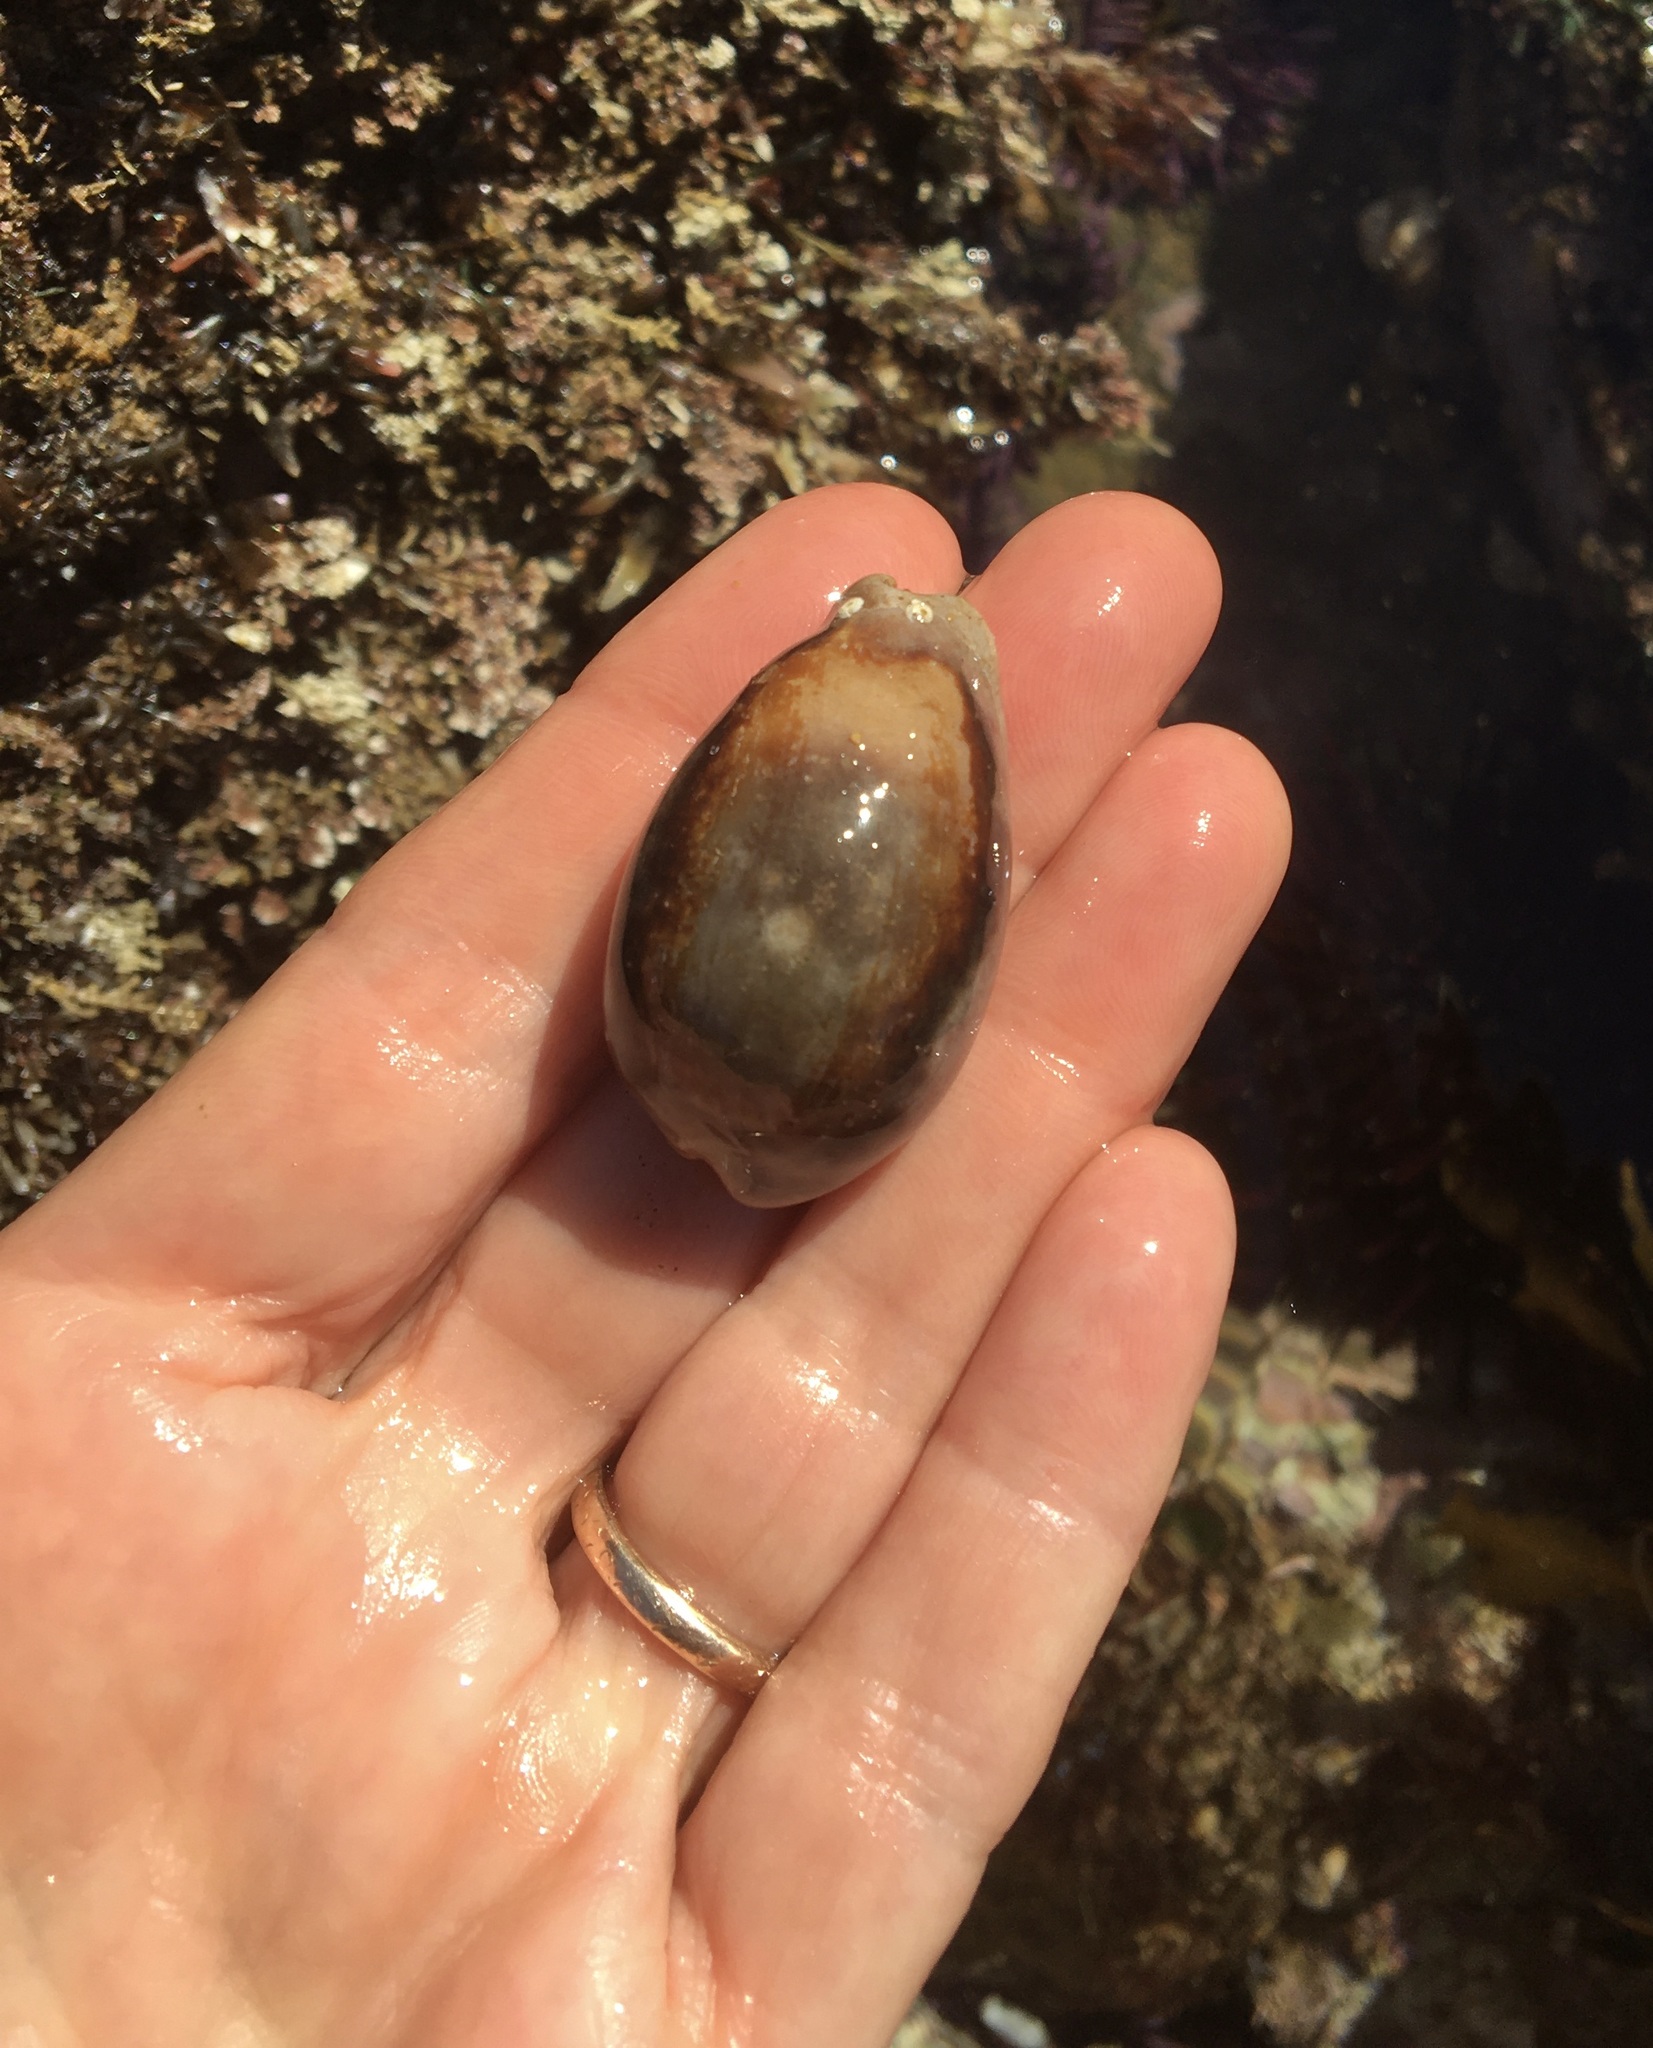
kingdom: Animalia
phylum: Mollusca
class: Gastropoda
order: Littorinimorpha
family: Cypraeidae
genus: Neobernaya
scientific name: Neobernaya spadicea
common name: Chestnut cowrie
